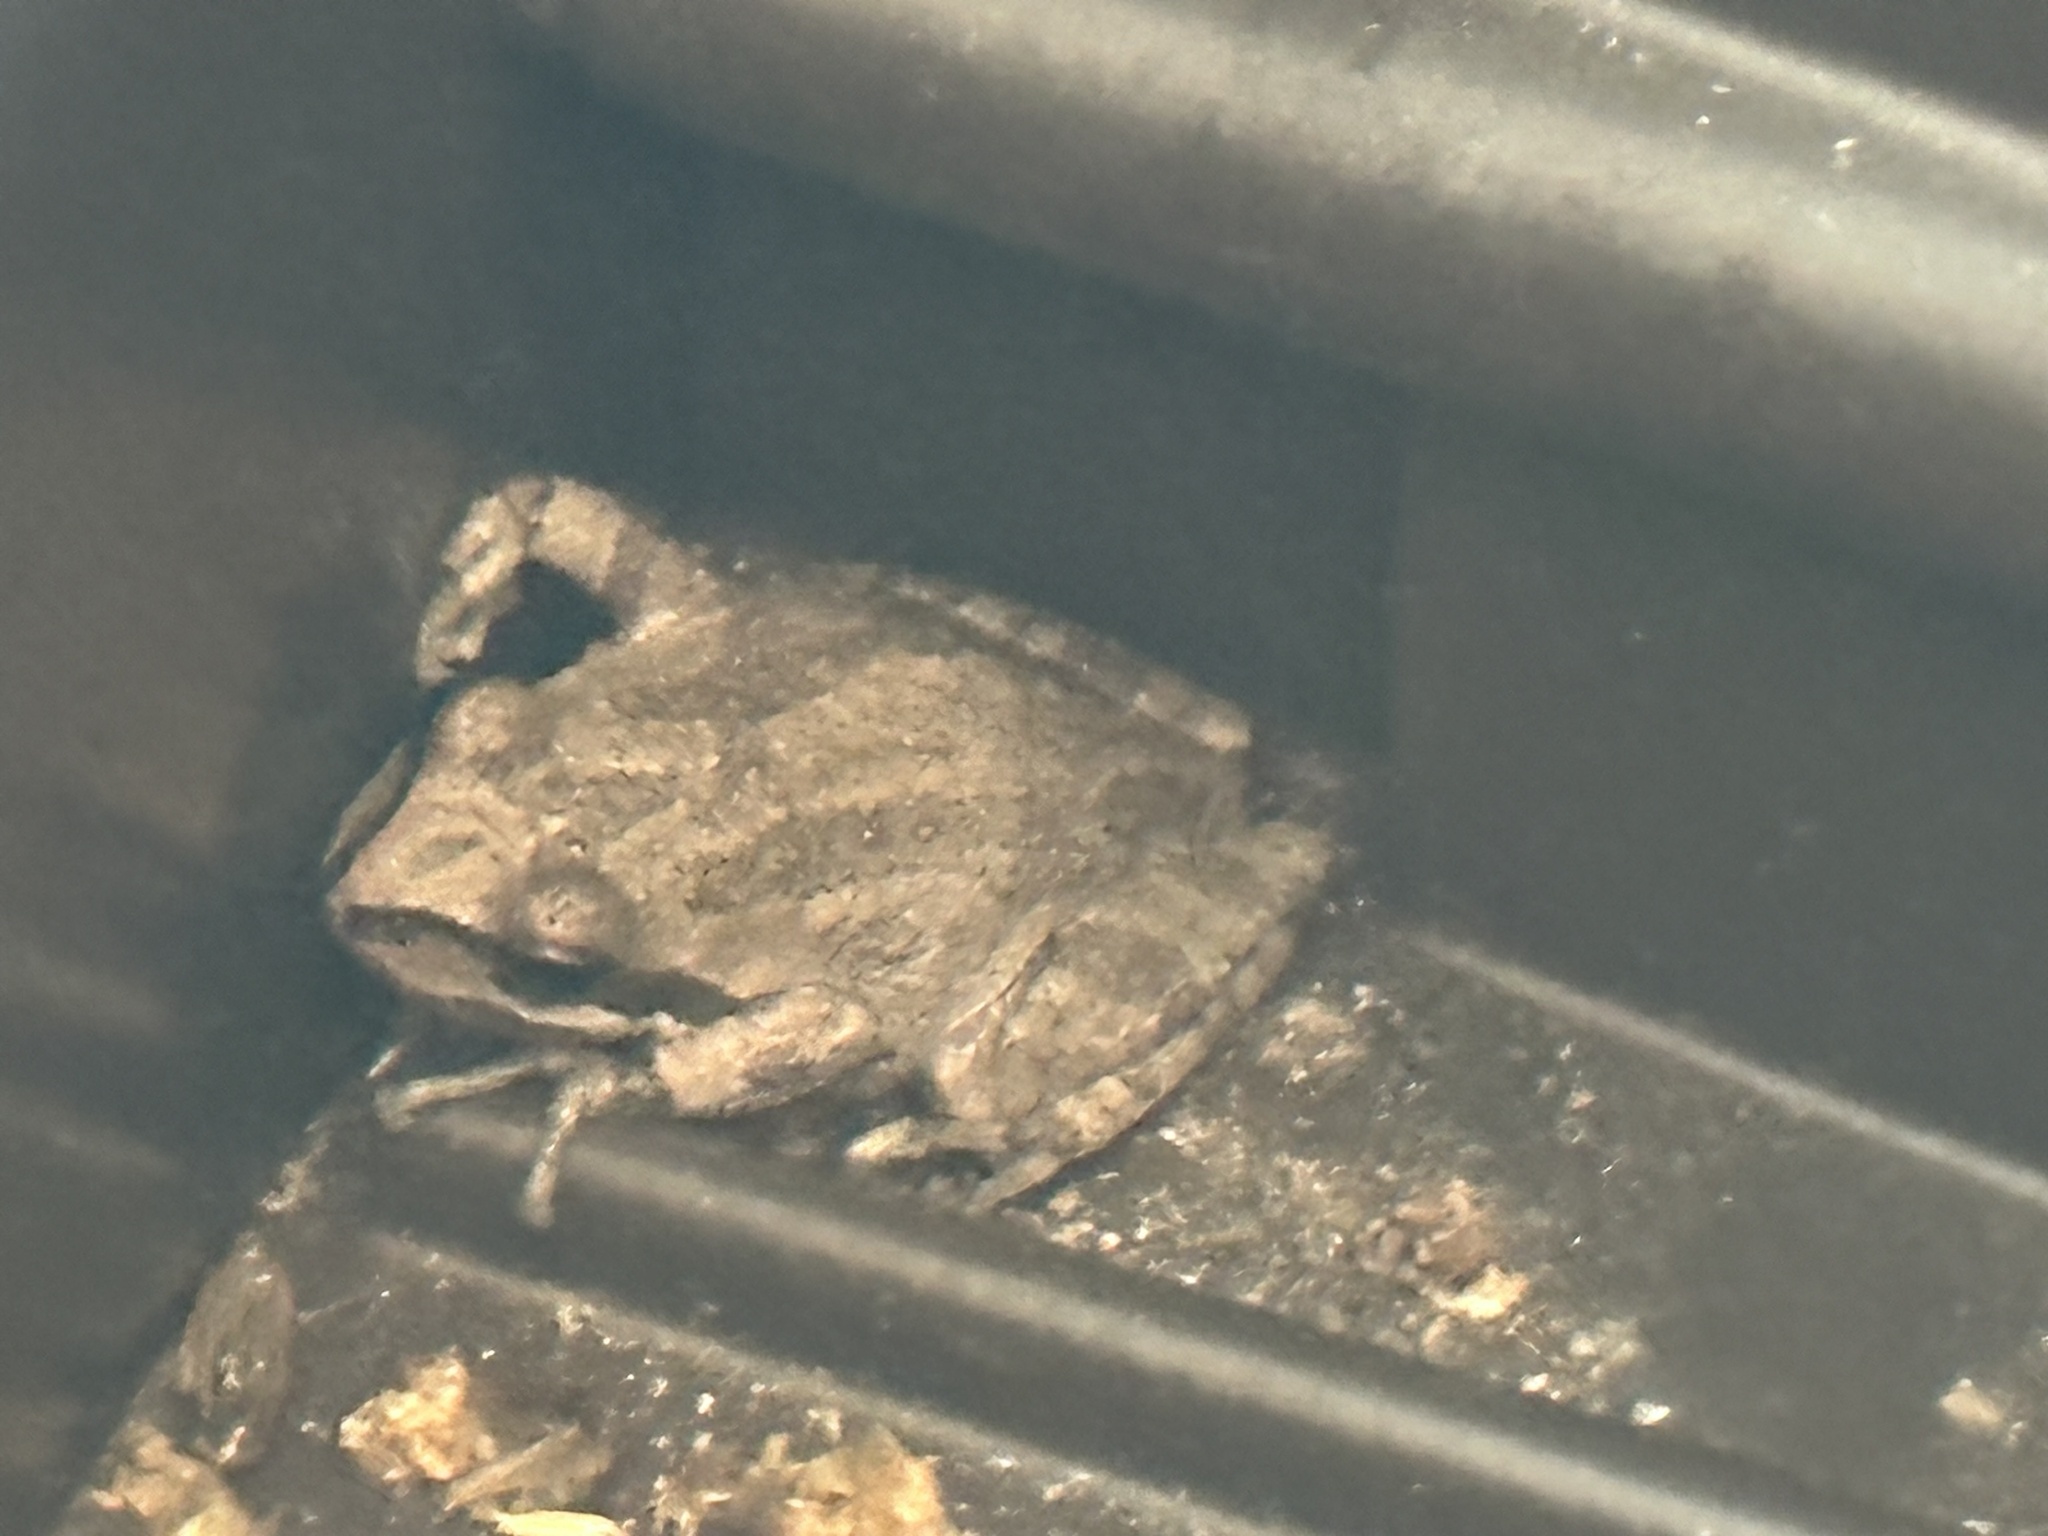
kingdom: Animalia
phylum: Chordata
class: Amphibia
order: Anura
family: Hylidae
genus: Pseudacris
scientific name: Pseudacris regilla
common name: Pacific chorus frog
